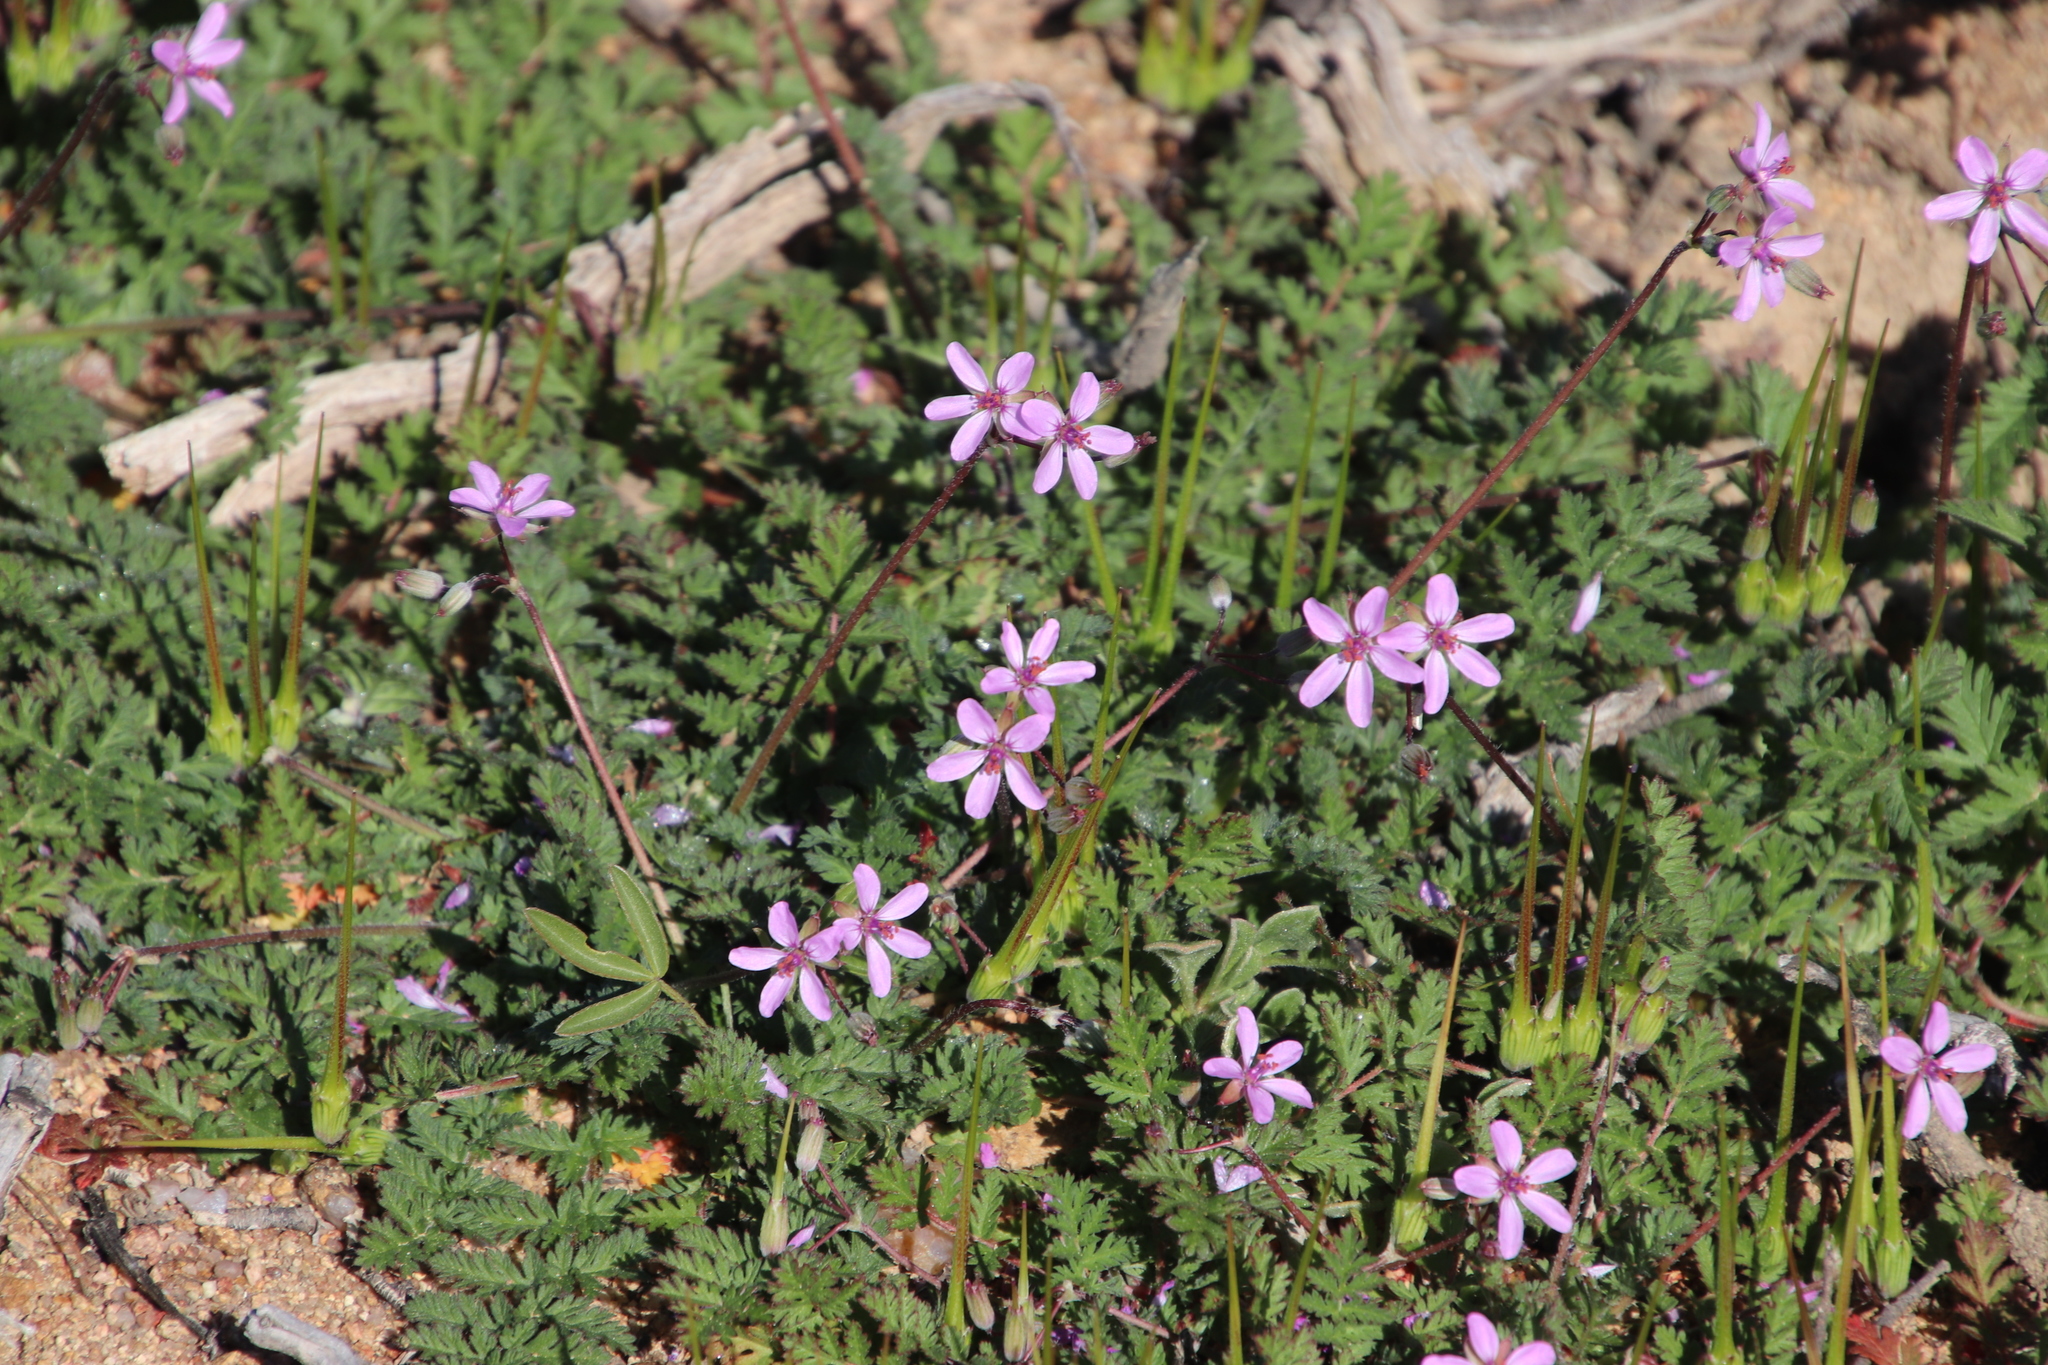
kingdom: Plantae
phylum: Tracheophyta
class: Magnoliopsida
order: Geraniales
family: Geraniaceae
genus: Erodium
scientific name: Erodium cicutarium
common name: Common stork's-bill
